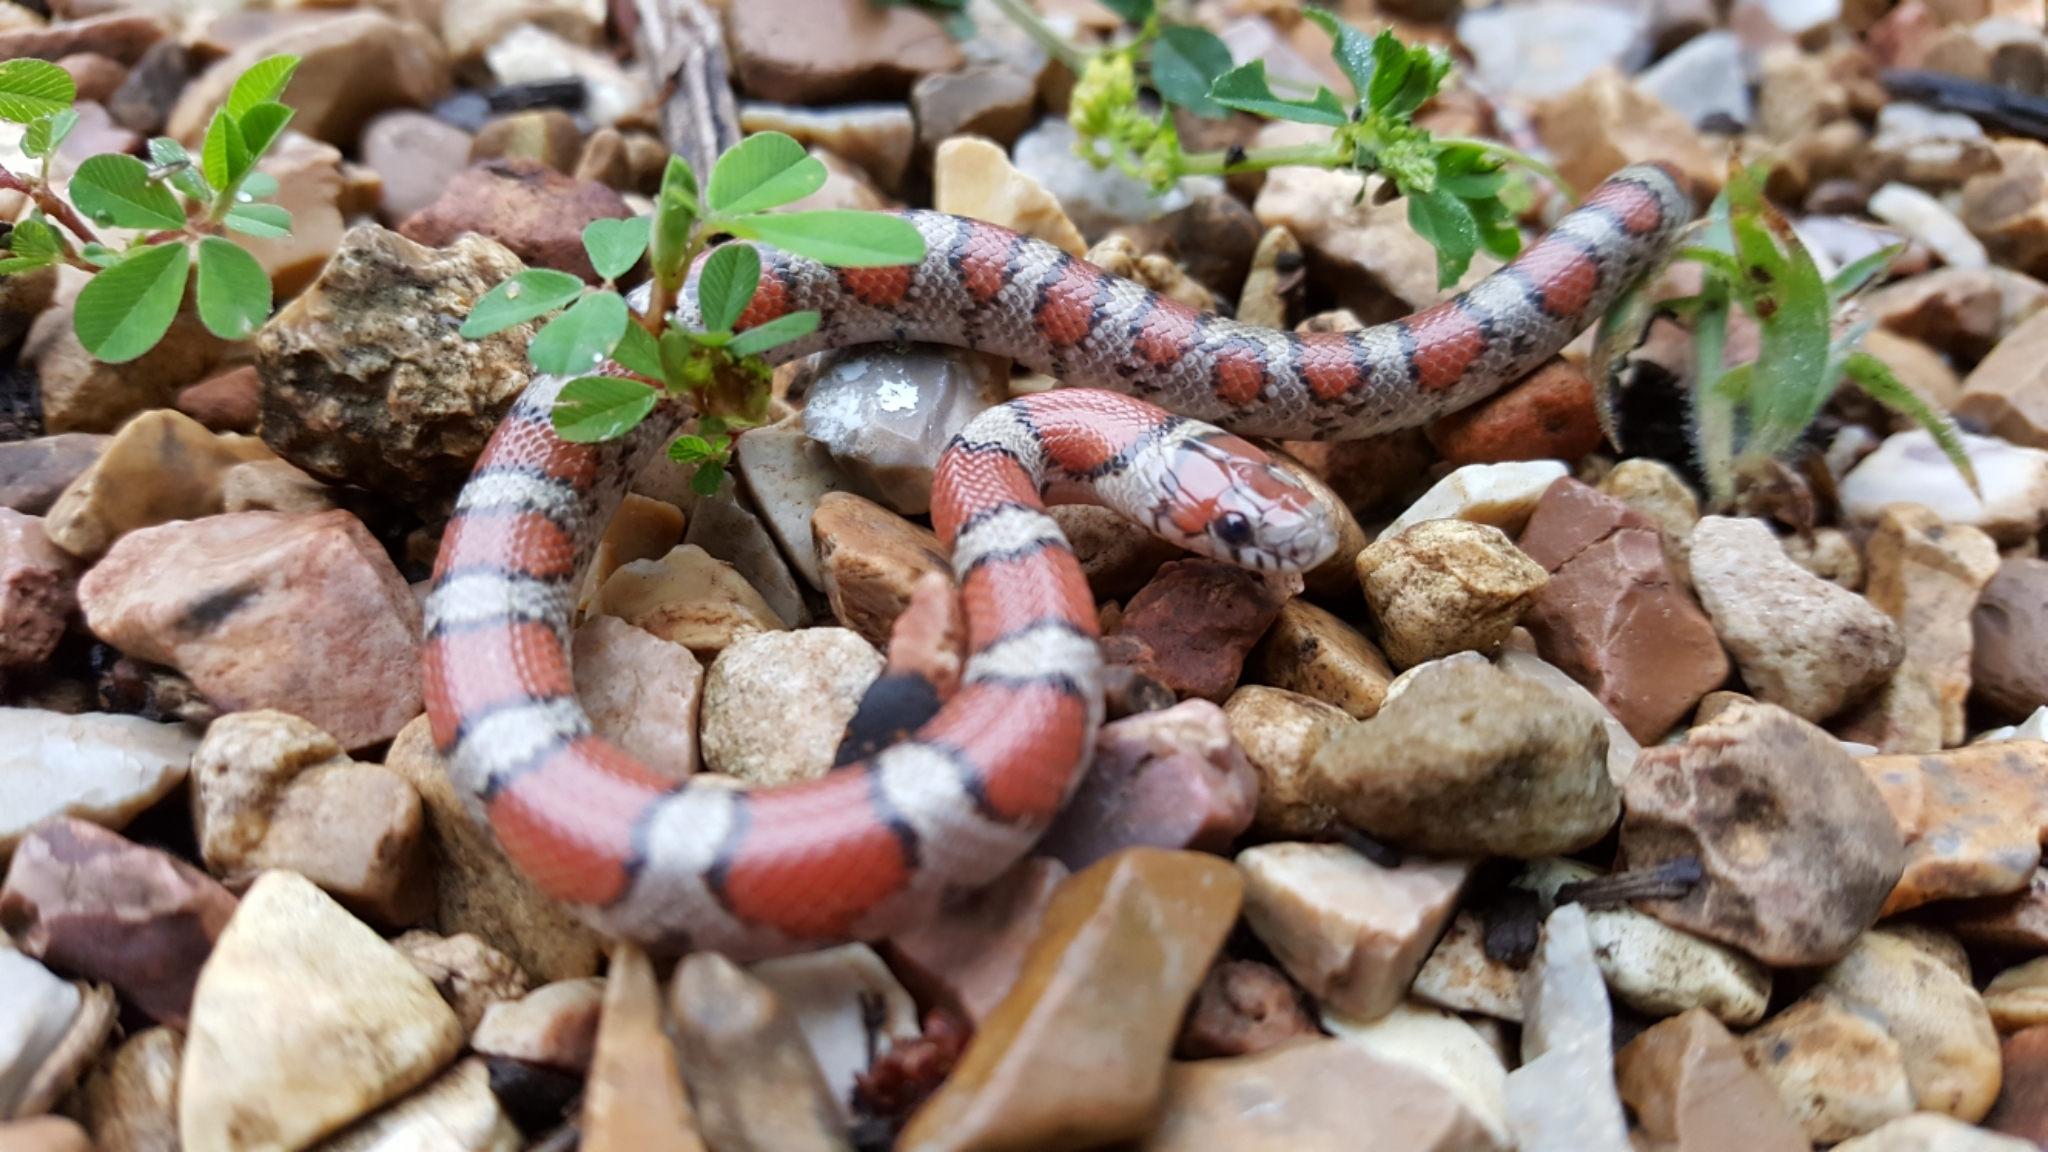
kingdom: Animalia
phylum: Chordata
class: Squamata
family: Colubridae
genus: Lampropeltis
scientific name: Lampropeltis triangulum
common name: Eastern milksnake
